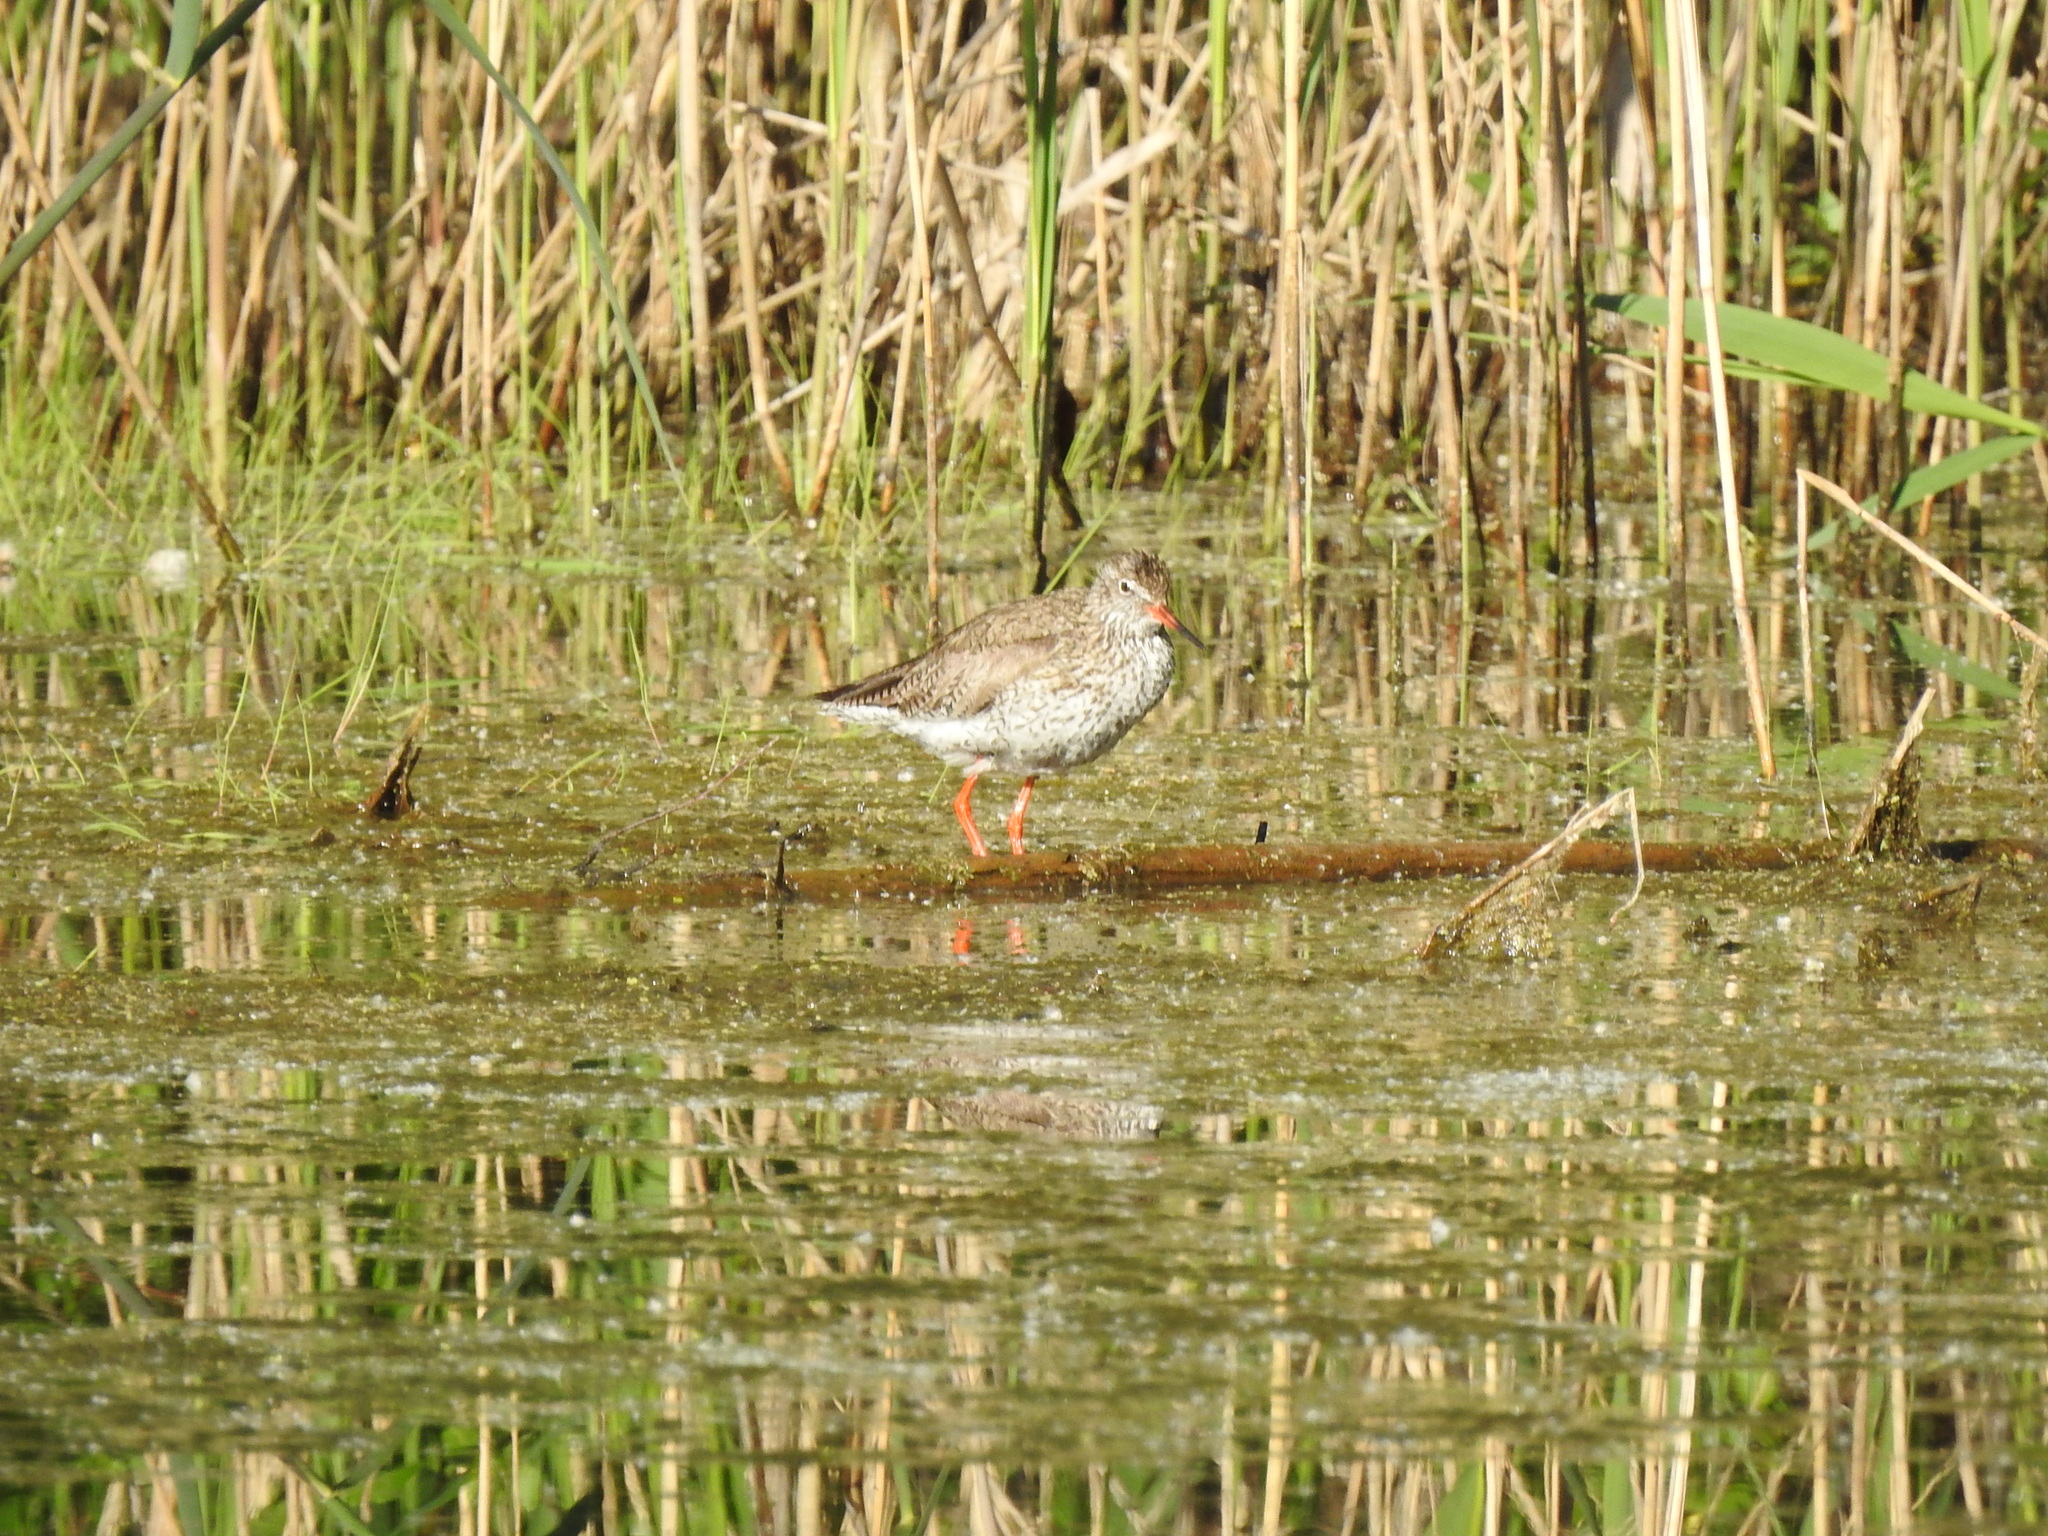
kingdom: Animalia
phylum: Chordata
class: Aves
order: Charadriiformes
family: Scolopacidae
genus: Tringa
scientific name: Tringa totanus
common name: Common redshank
